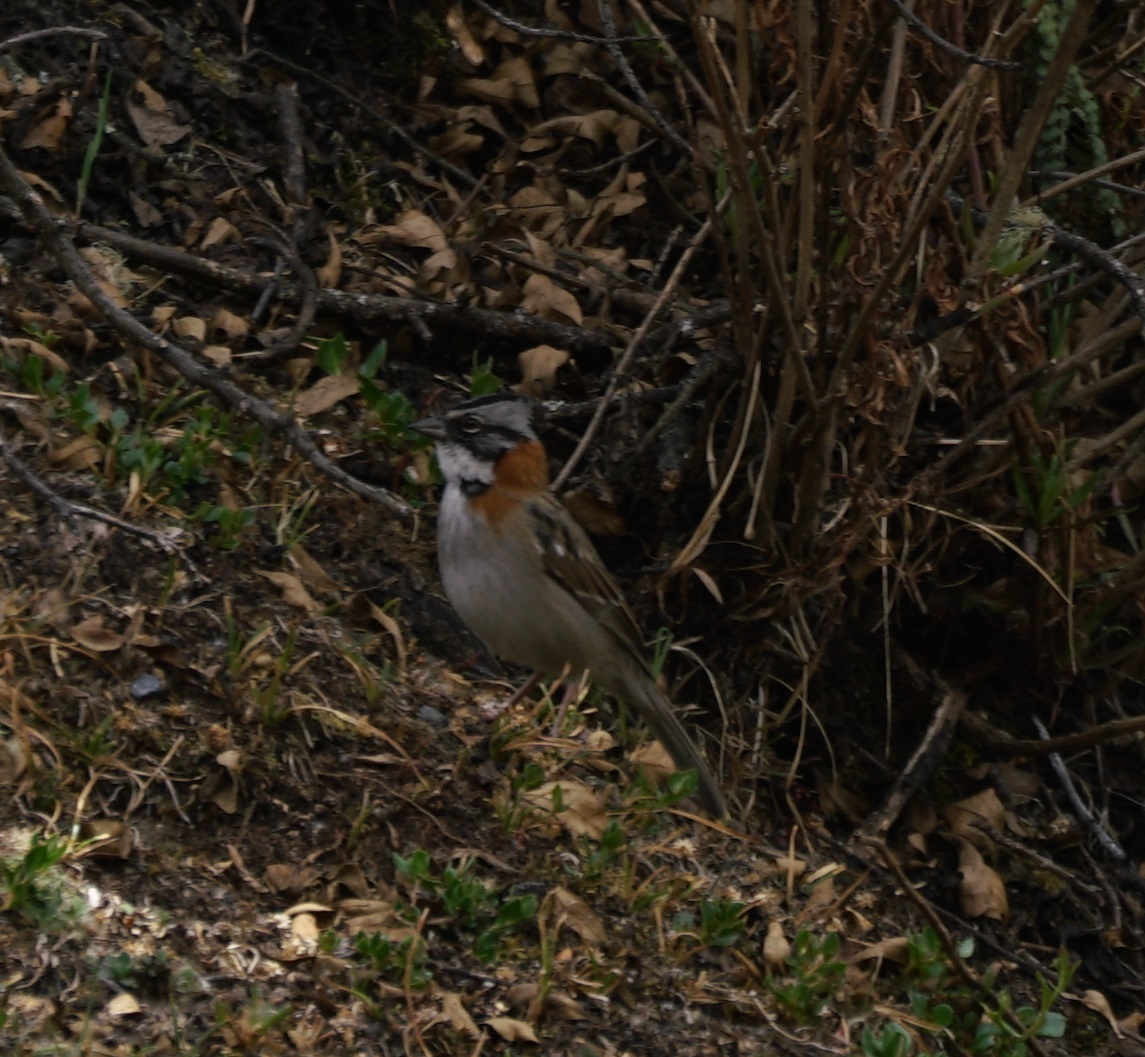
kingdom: Animalia
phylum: Chordata
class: Aves
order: Passeriformes
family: Passerellidae
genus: Zonotrichia
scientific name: Zonotrichia capensis
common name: Rufous-collared sparrow
